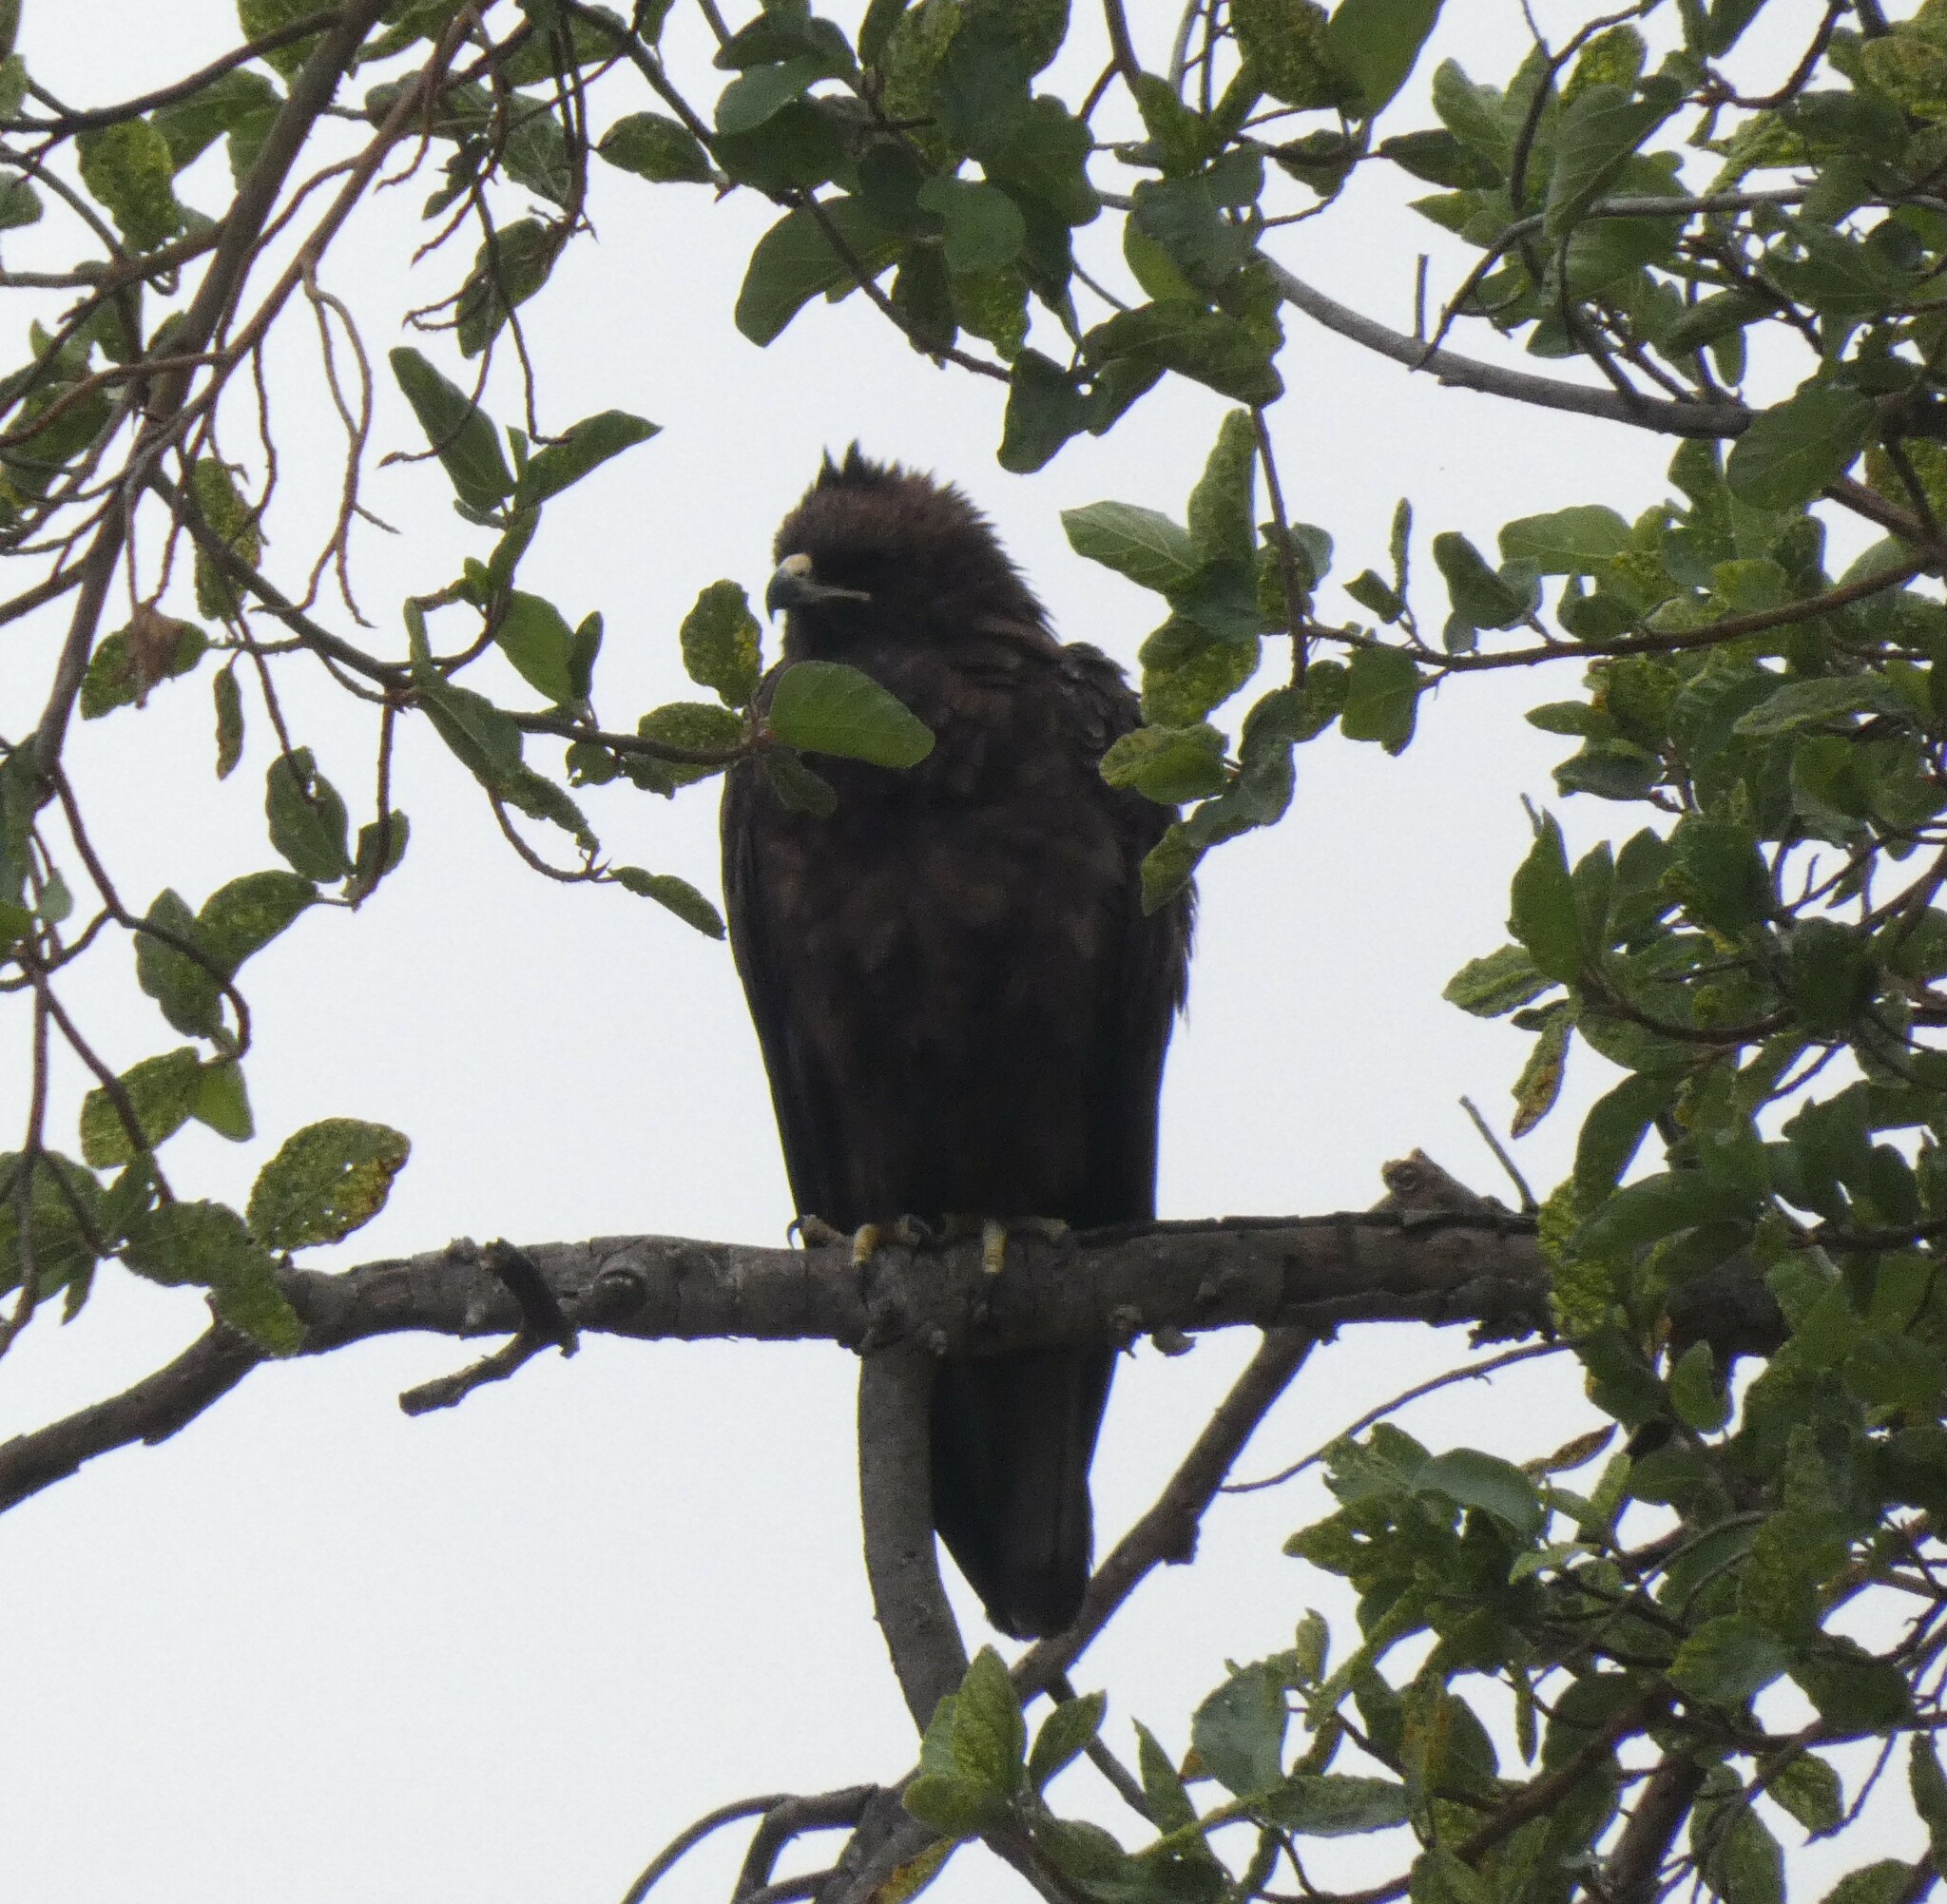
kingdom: Animalia
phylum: Chordata
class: Aves
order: Accipitriformes
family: Accipitridae
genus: Hieraaetus
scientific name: Hieraaetus wahlbergi
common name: Wahlberg's eagle
